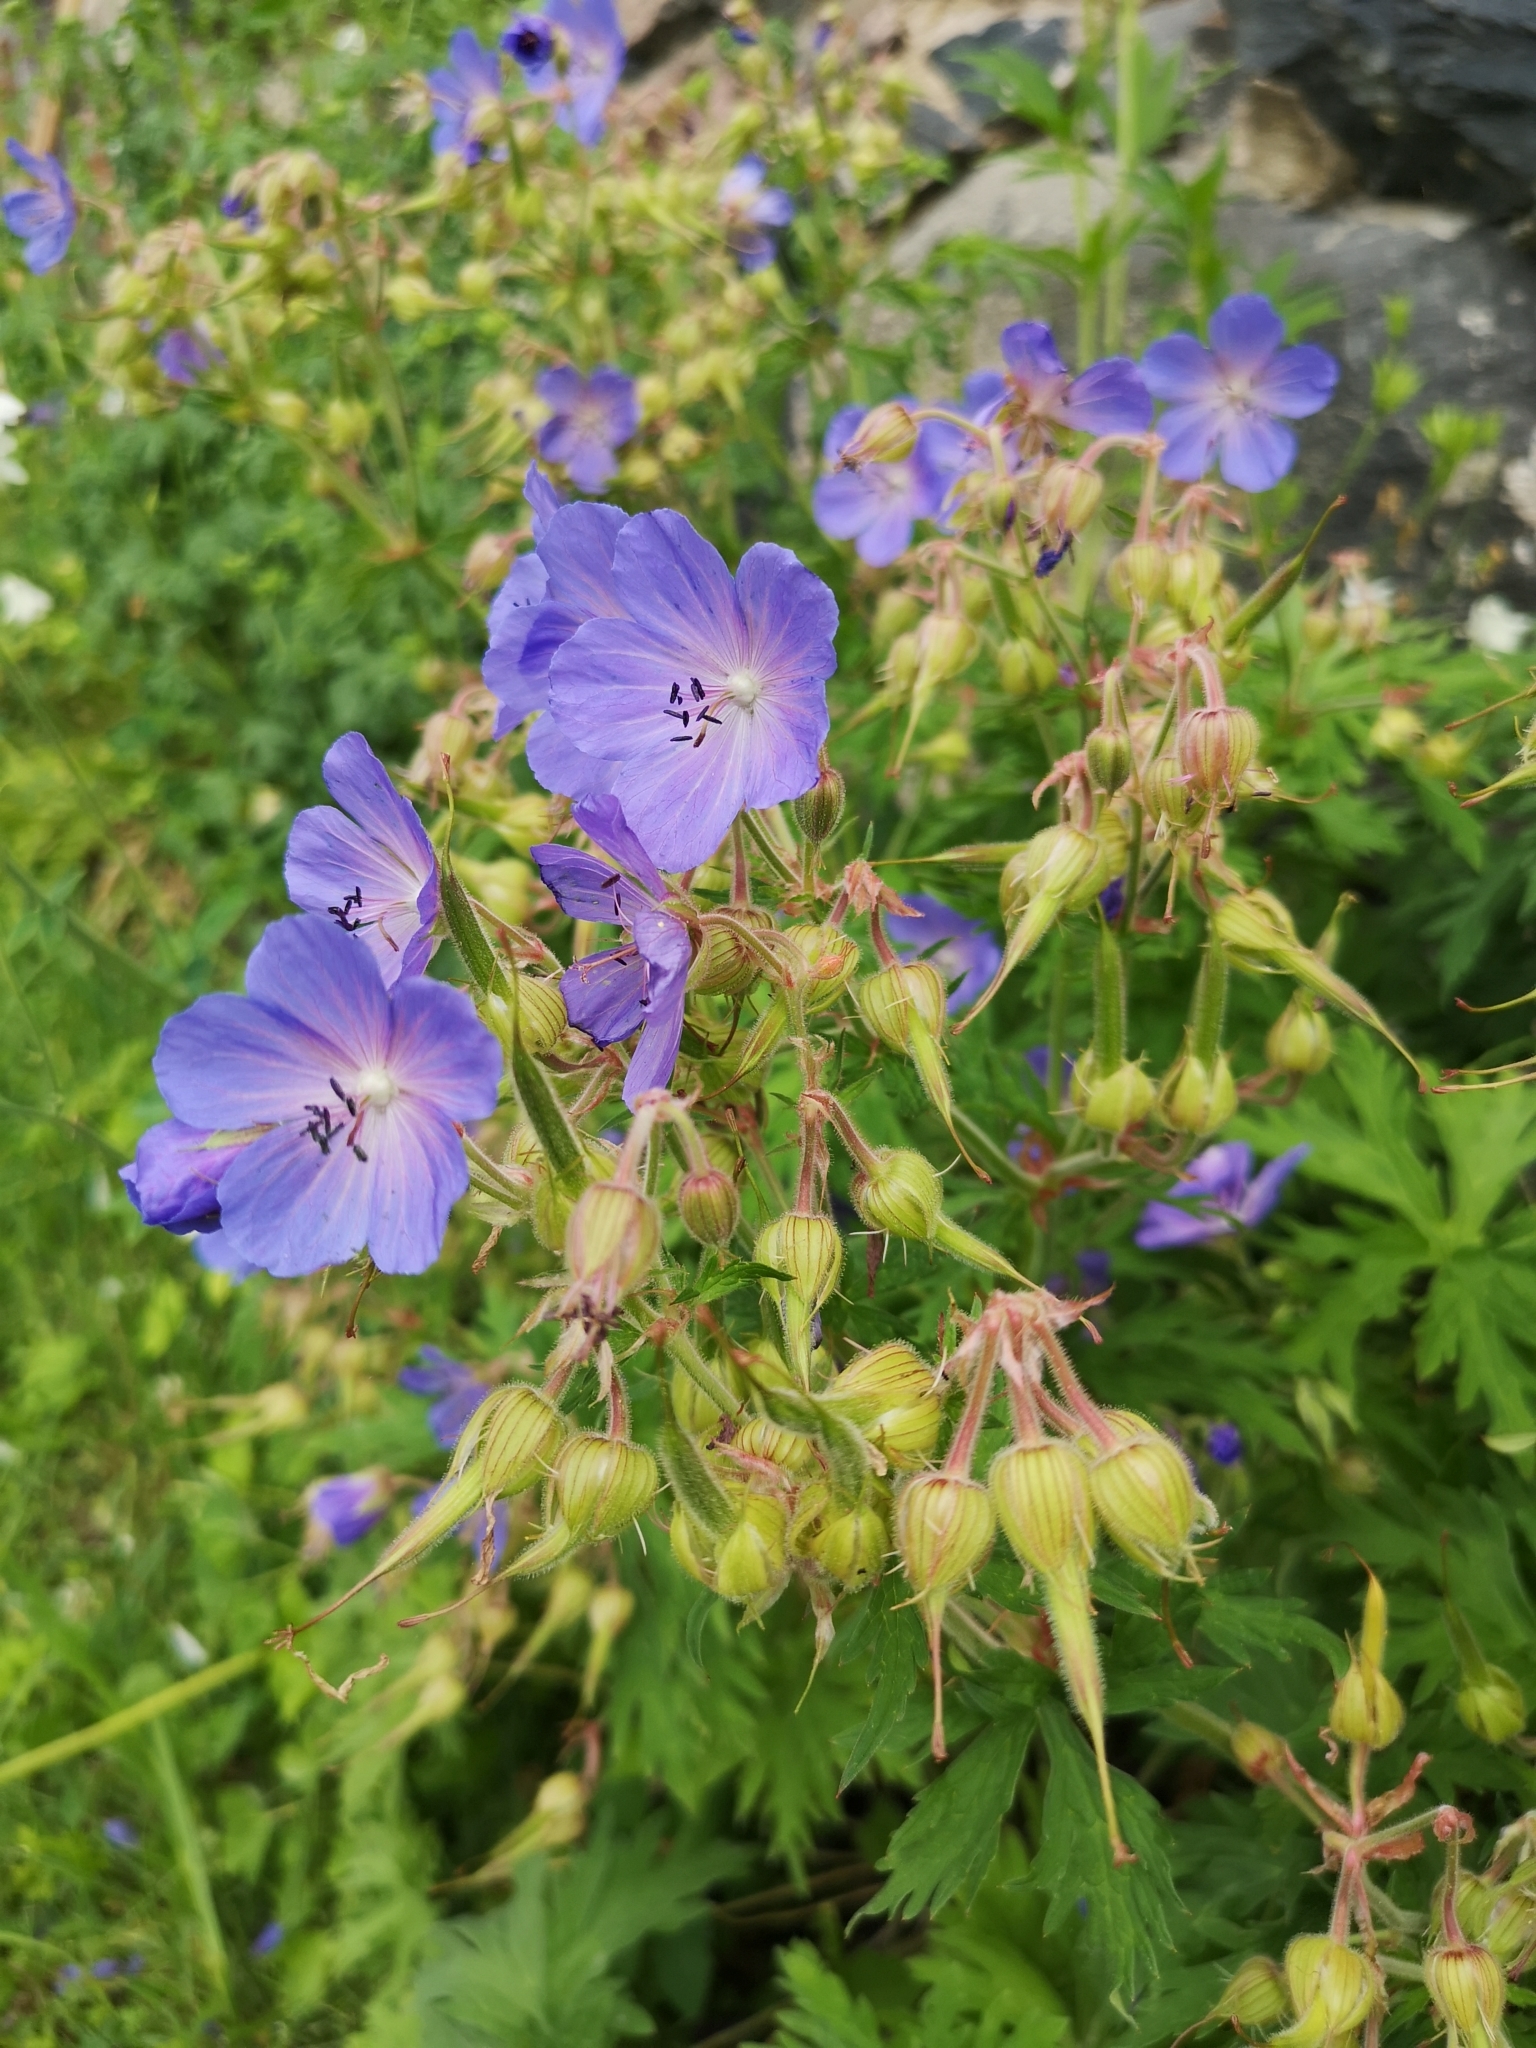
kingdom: Plantae
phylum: Tracheophyta
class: Magnoliopsida
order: Geraniales
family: Geraniaceae
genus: Geranium
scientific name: Geranium pratense
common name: Meadow crane's-bill
